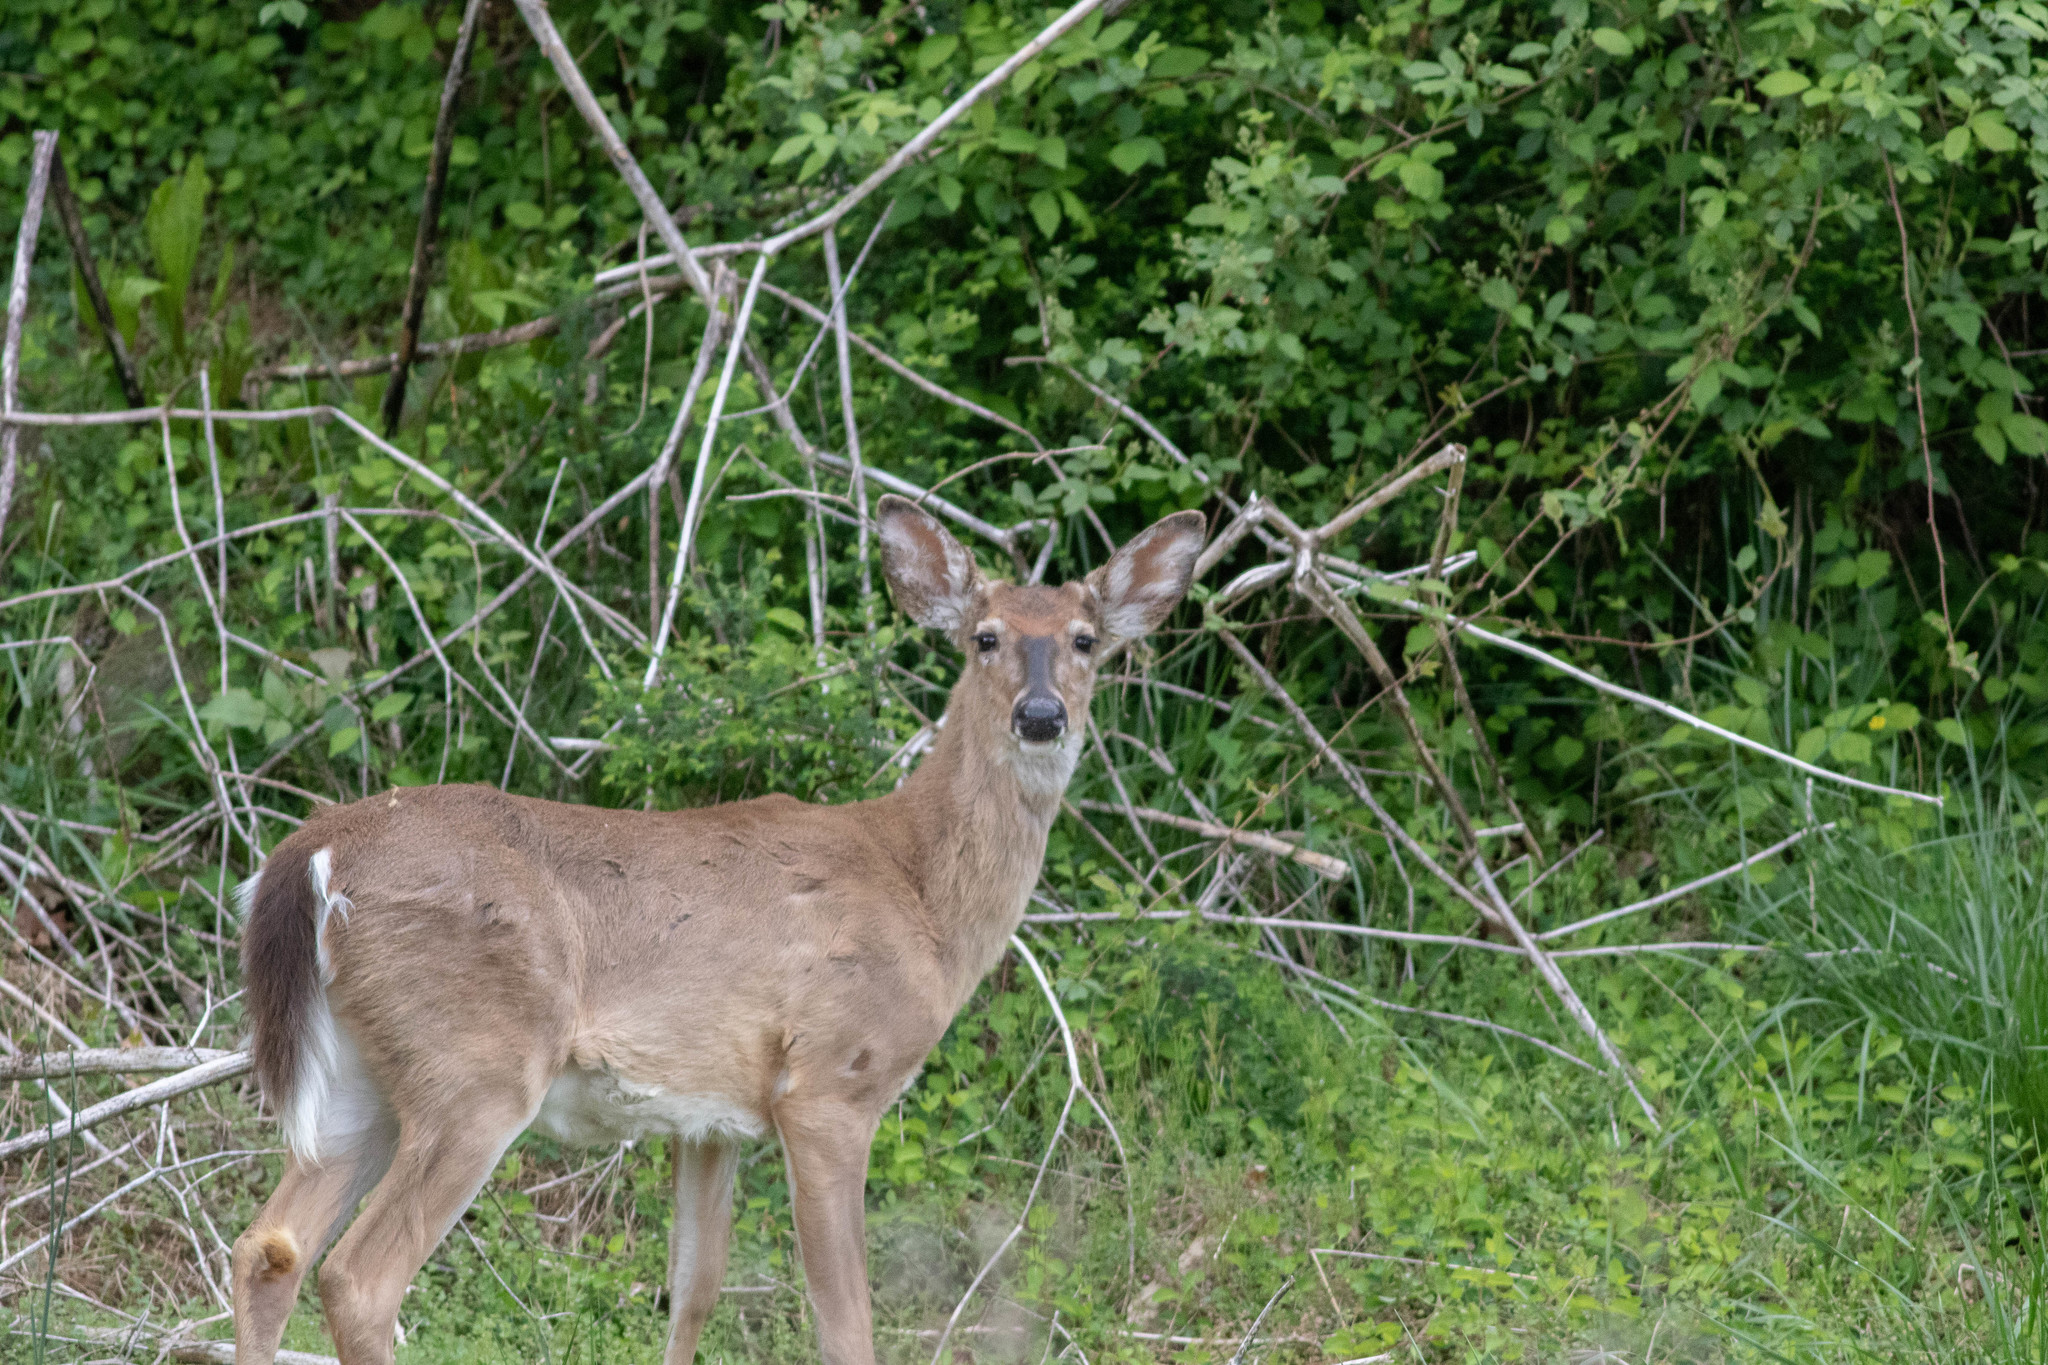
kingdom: Animalia
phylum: Chordata
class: Mammalia
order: Artiodactyla
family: Cervidae
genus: Odocoileus
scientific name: Odocoileus virginianus
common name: White-tailed deer
